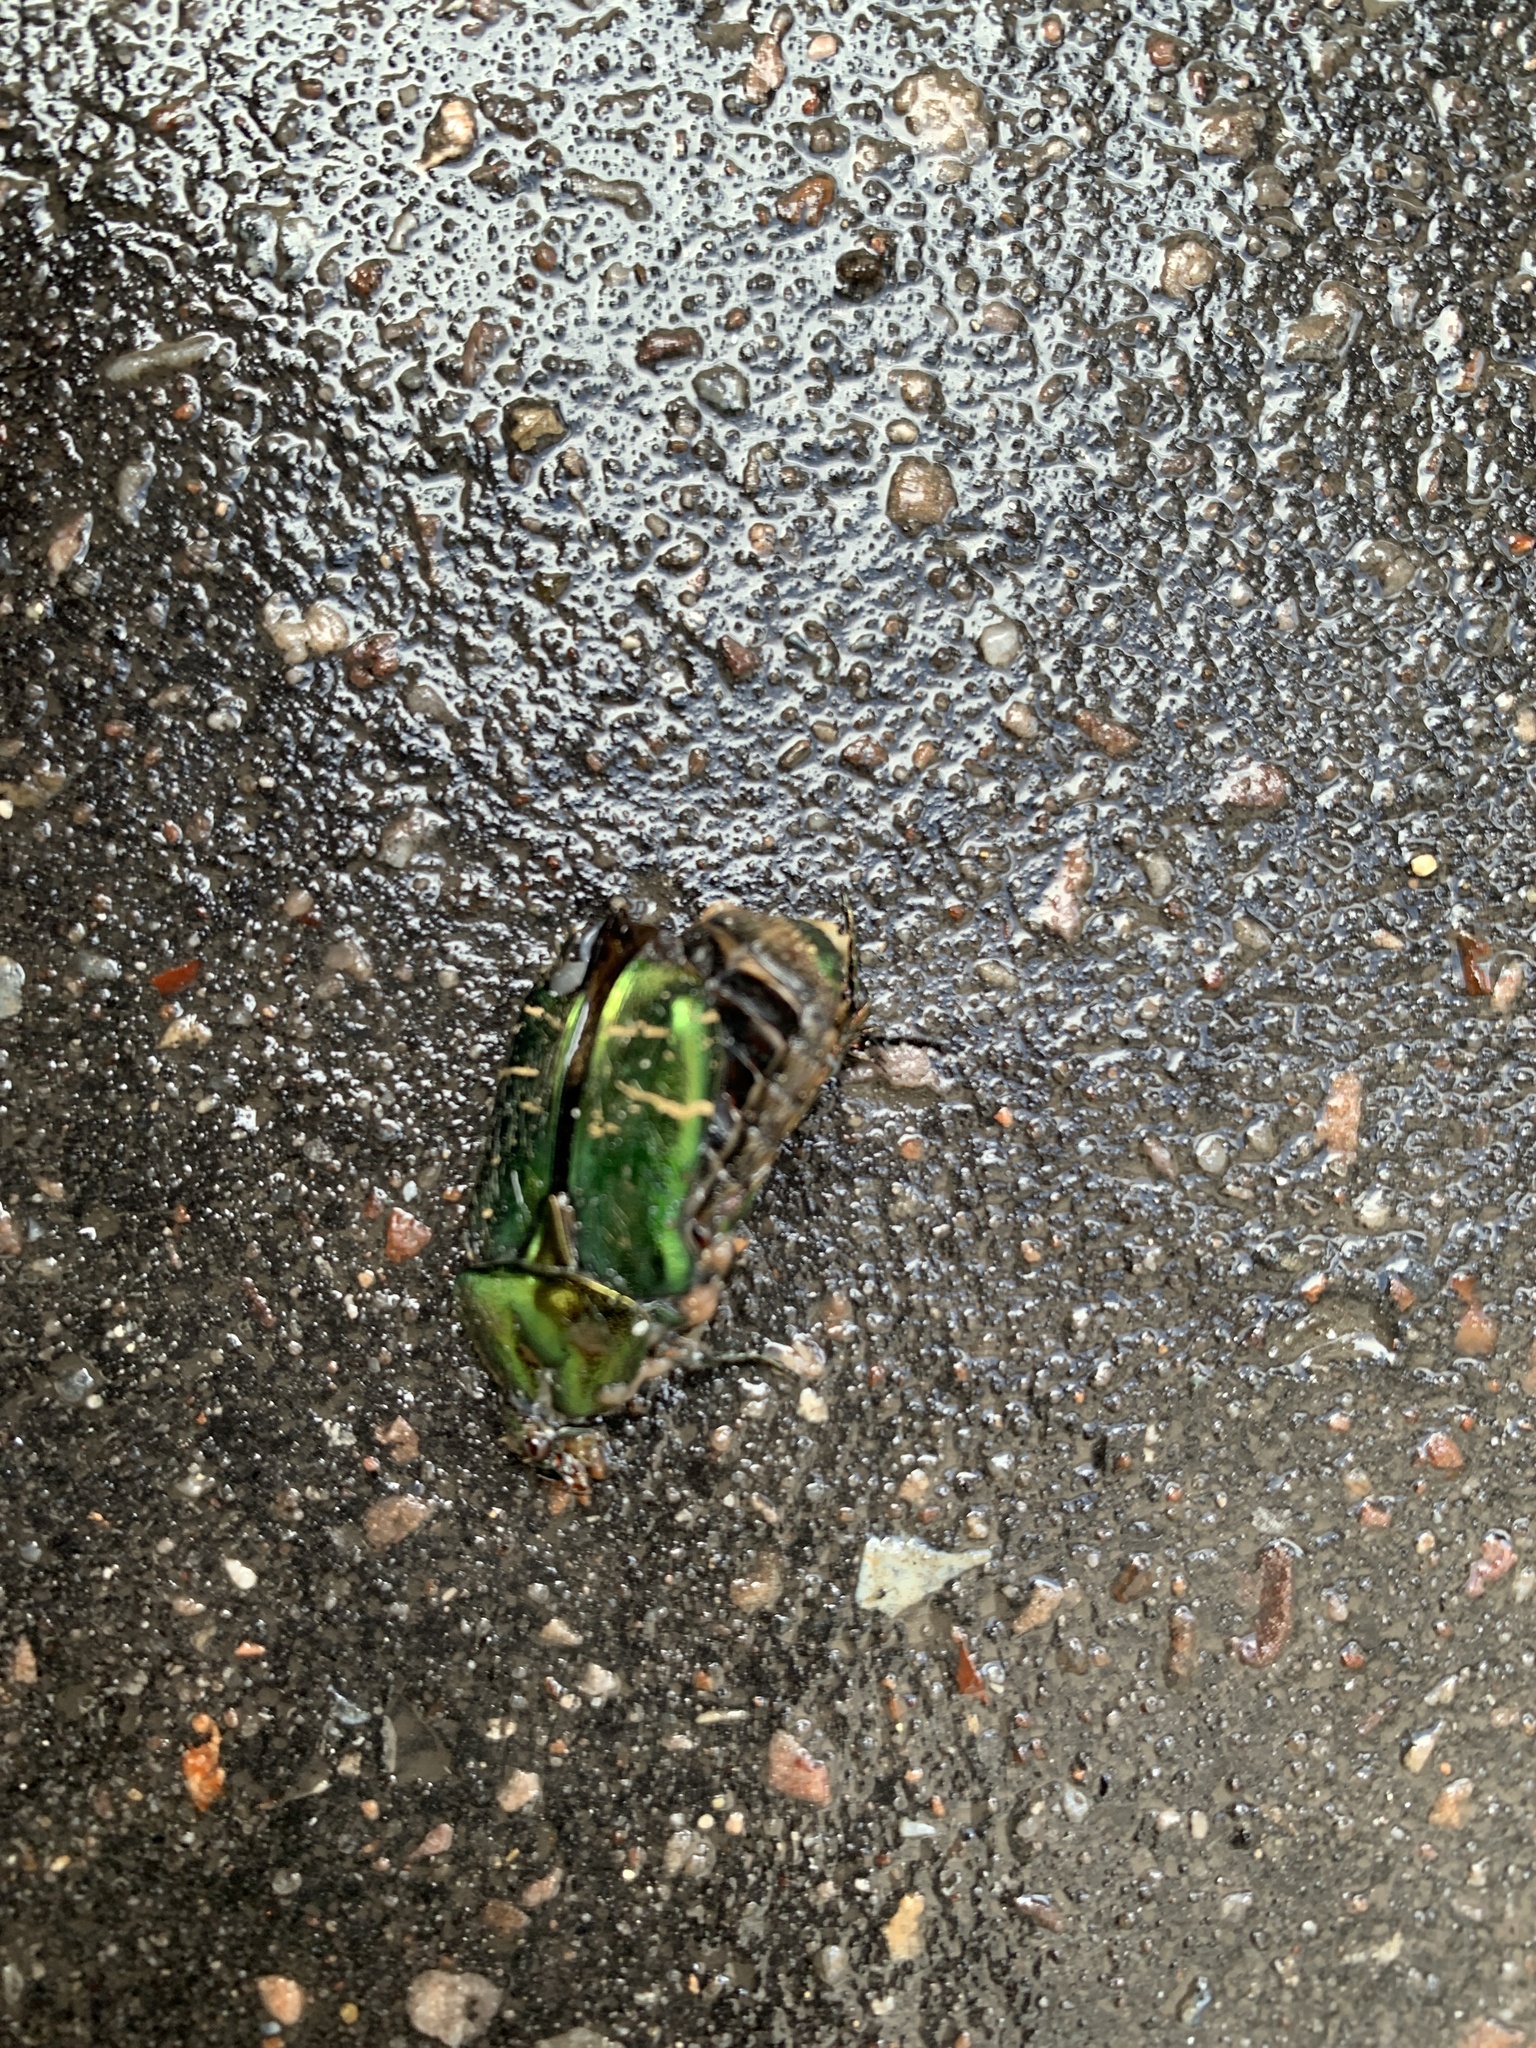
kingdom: Animalia
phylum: Arthropoda
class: Insecta
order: Coleoptera
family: Scarabaeidae
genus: Cetonia
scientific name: Cetonia aurata
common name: Rose chafer
